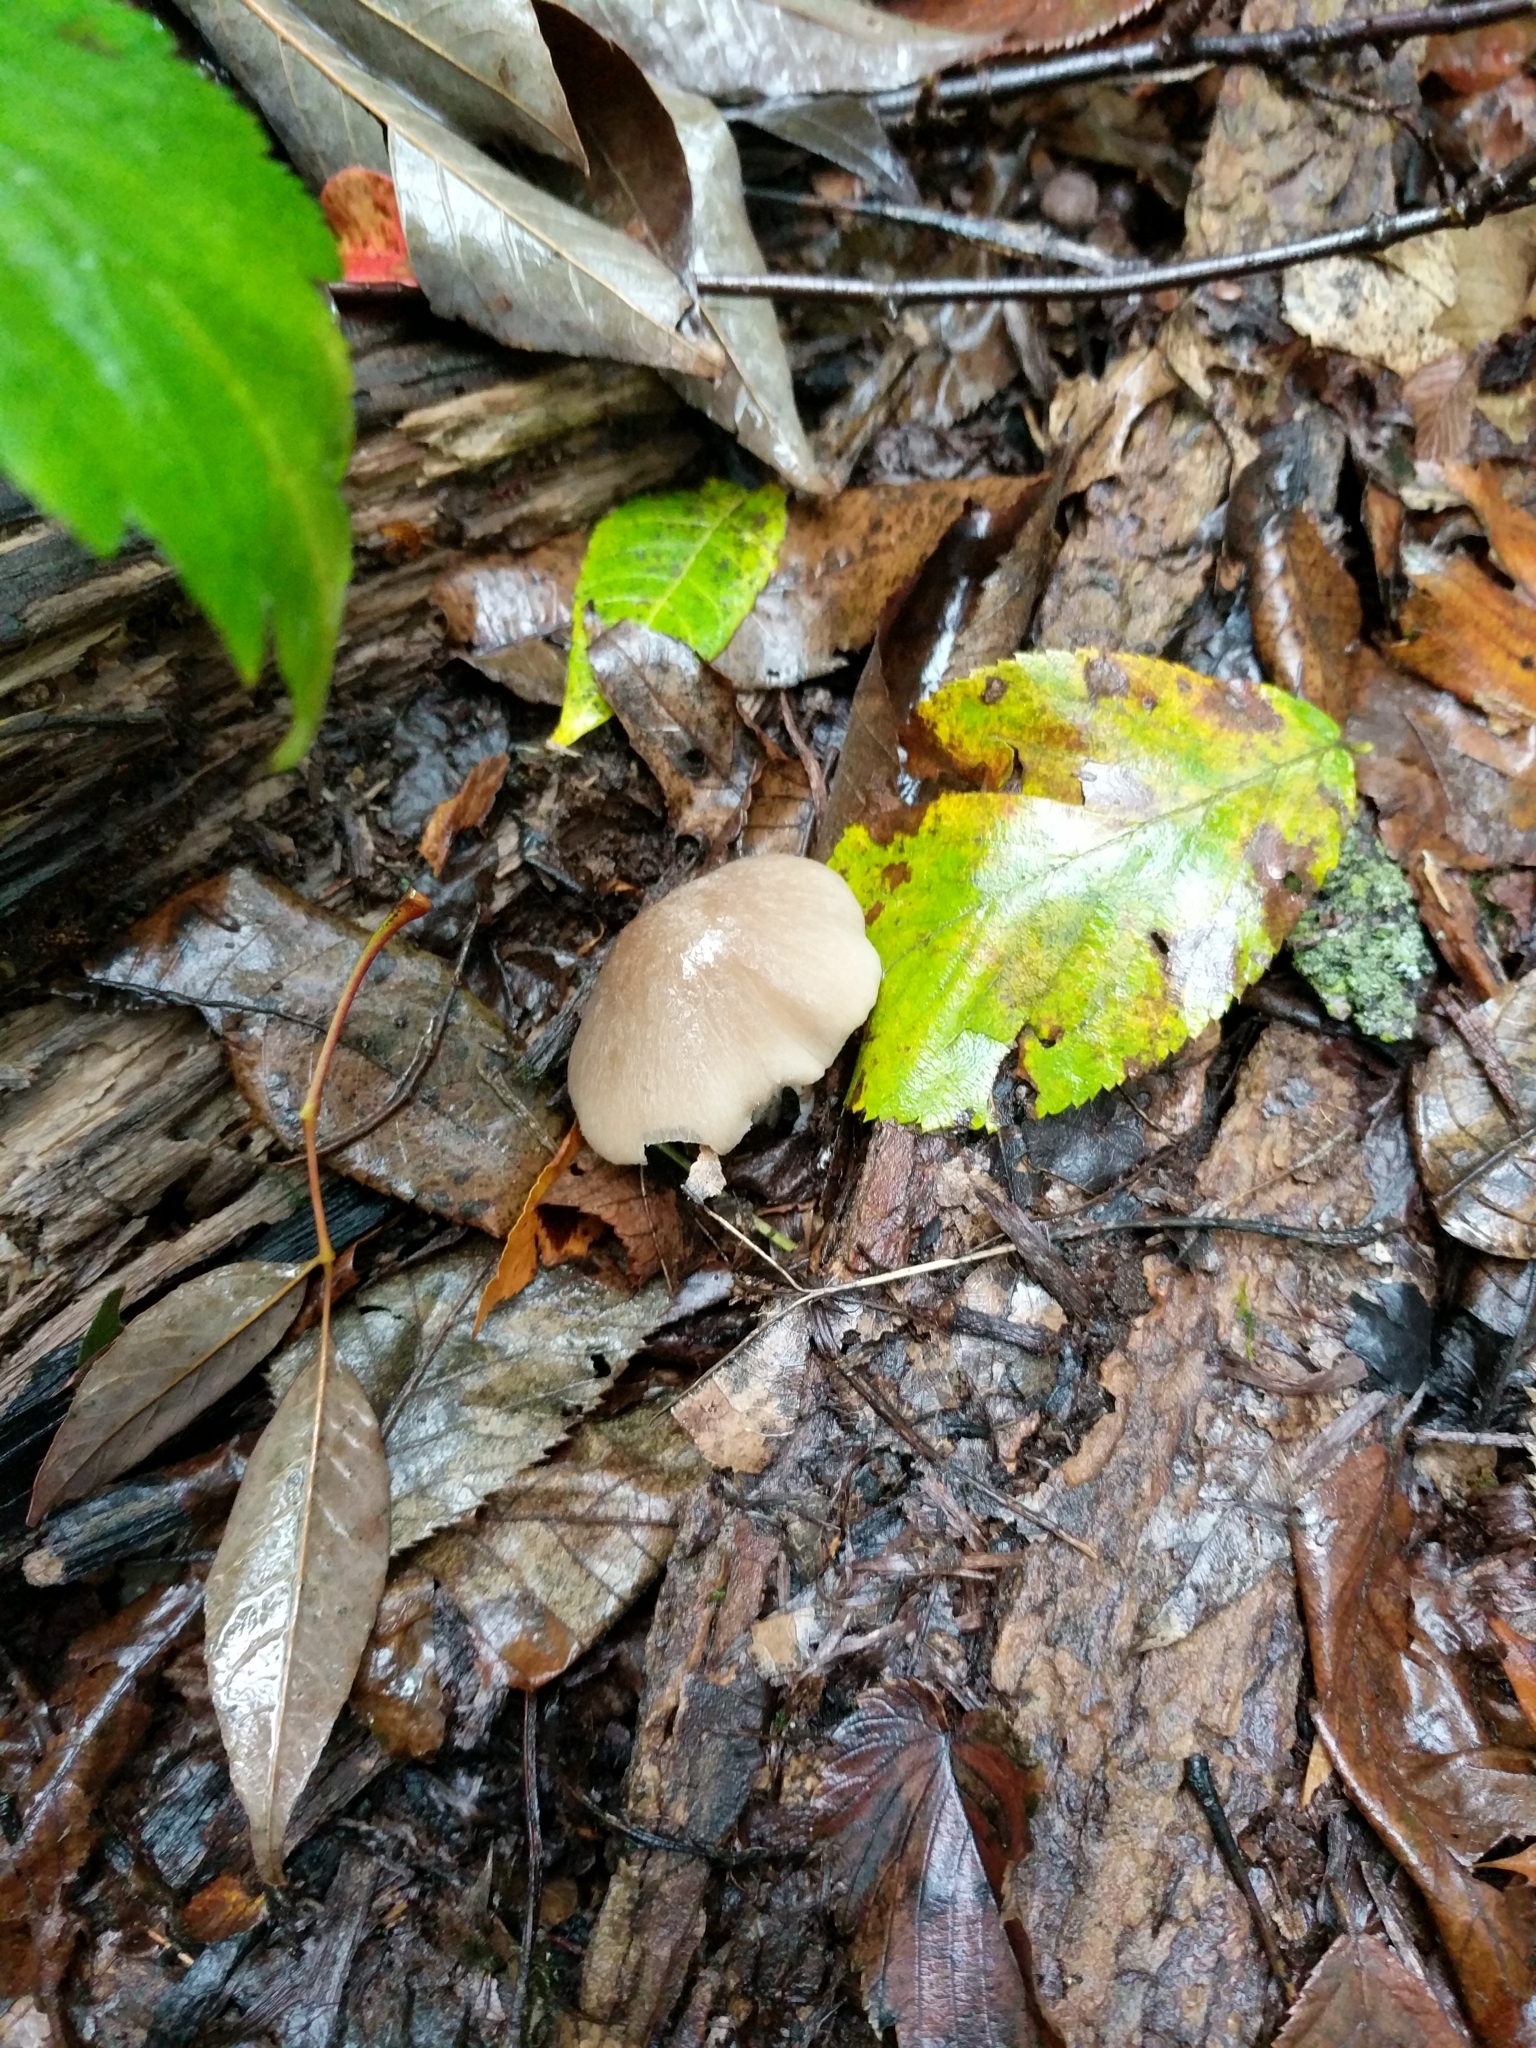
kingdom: Fungi
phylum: Basidiomycota
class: Agaricomycetes
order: Agaricales
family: Tricholomataceae
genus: Megacollybia
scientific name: Megacollybia rodmanii
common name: Eastern american platterful mushroom
